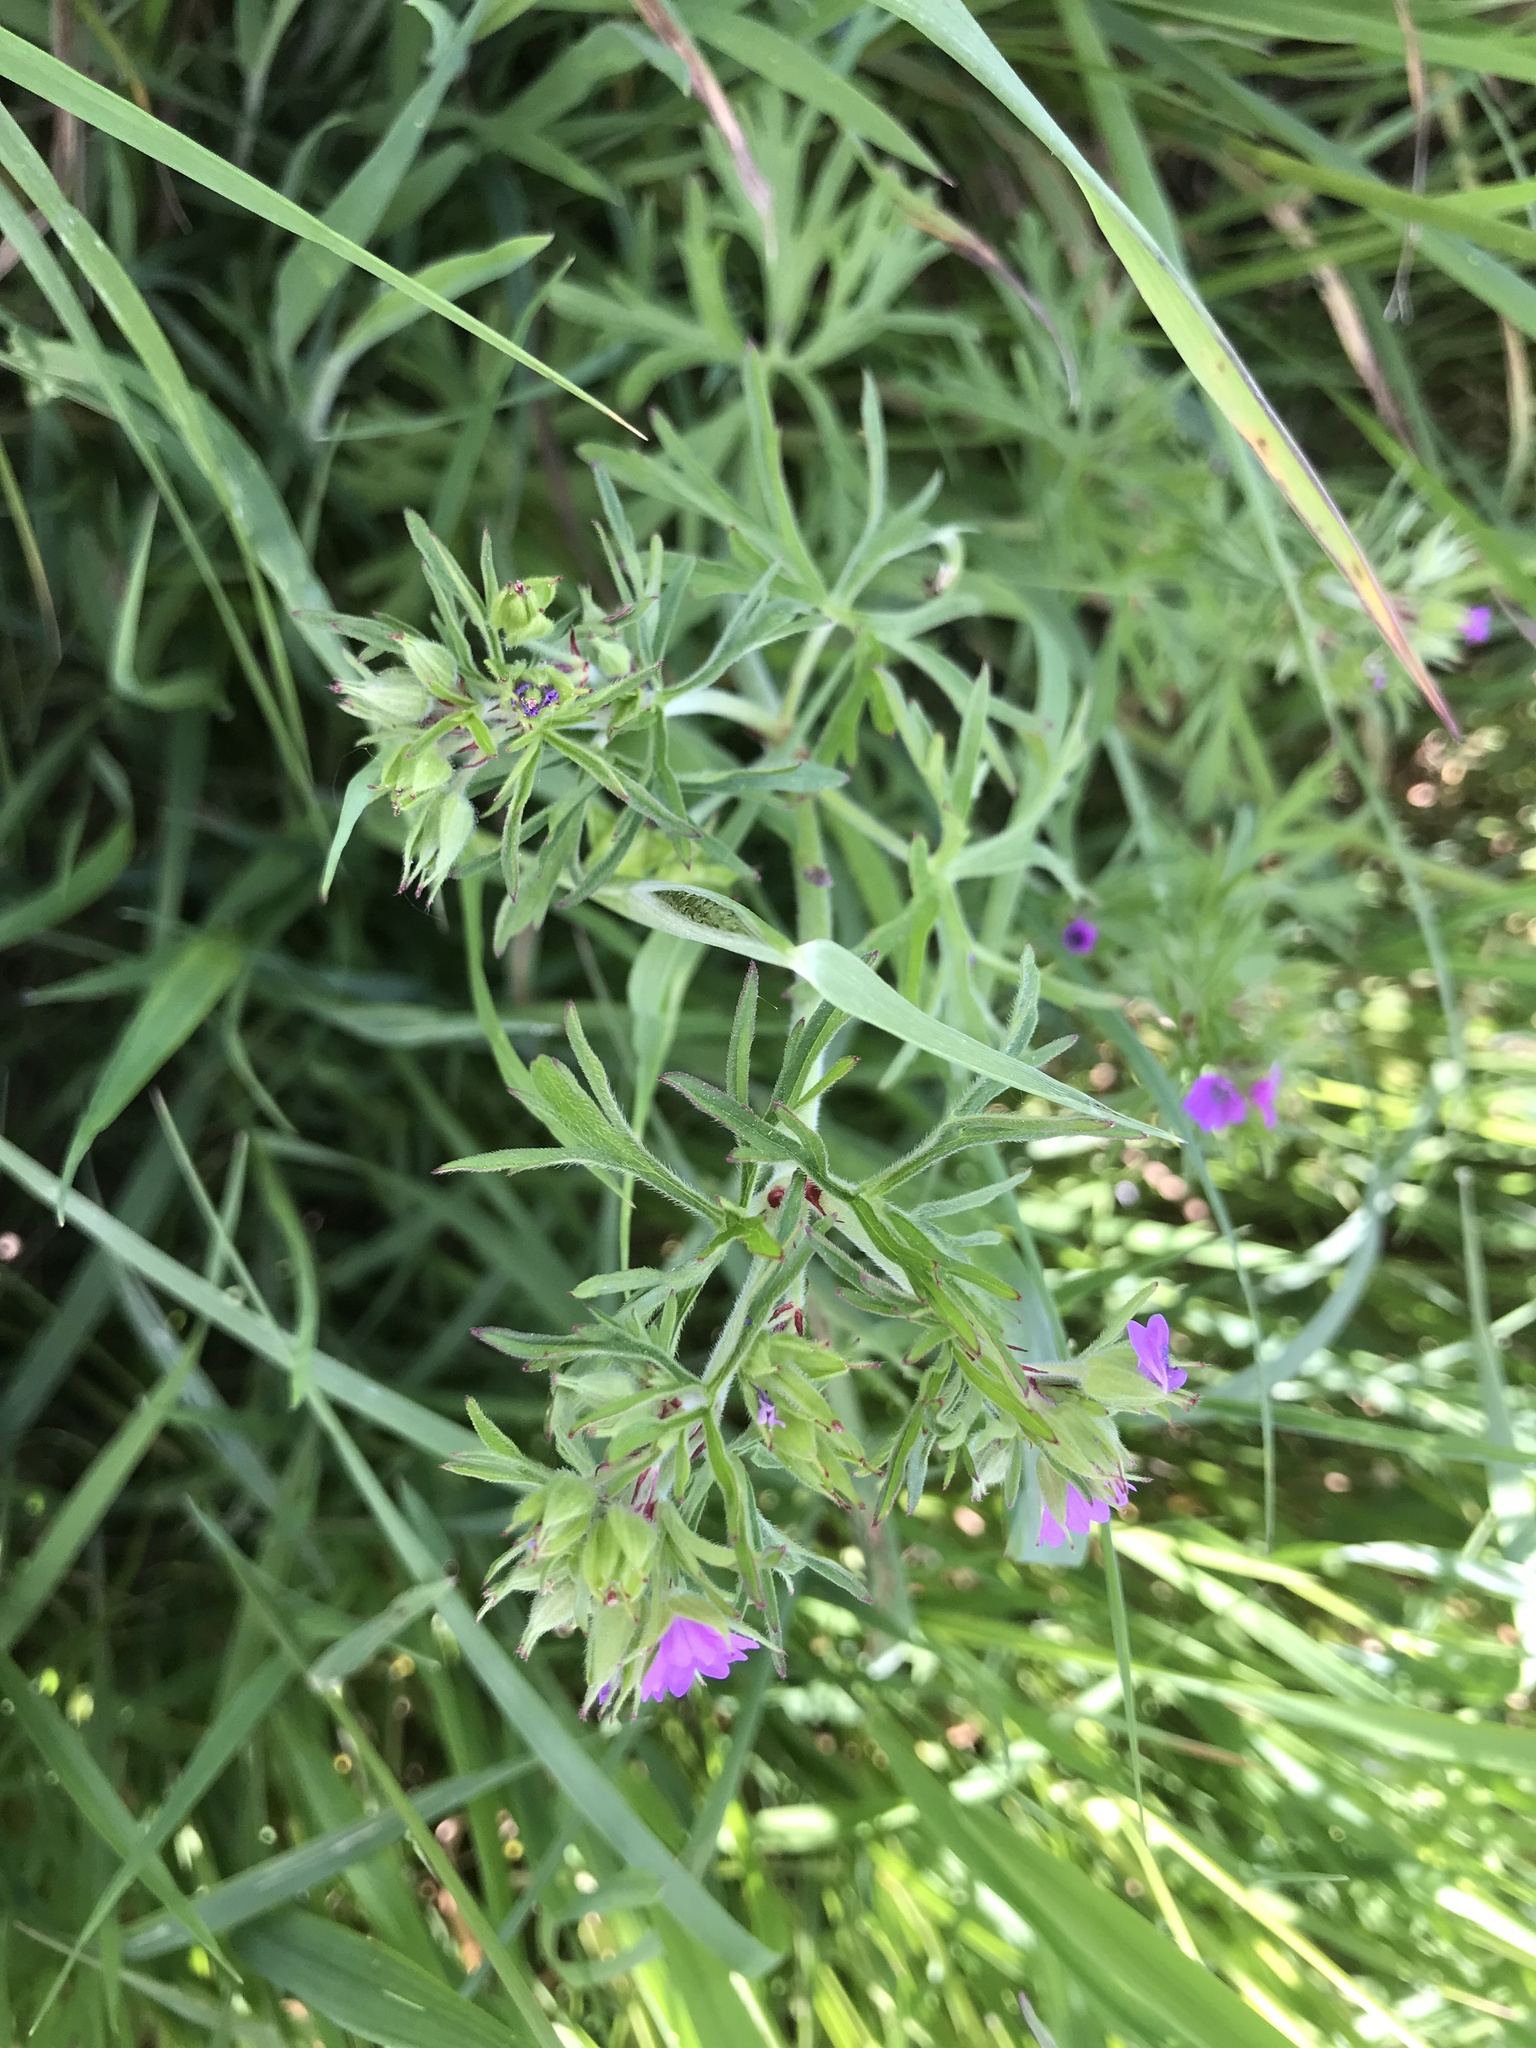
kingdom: Plantae
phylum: Tracheophyta
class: Magnoliopsida
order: Geraniales
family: Geraniaceae
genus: Geranium
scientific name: Geranium dissectum
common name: Cut-leaved crane's-bill
